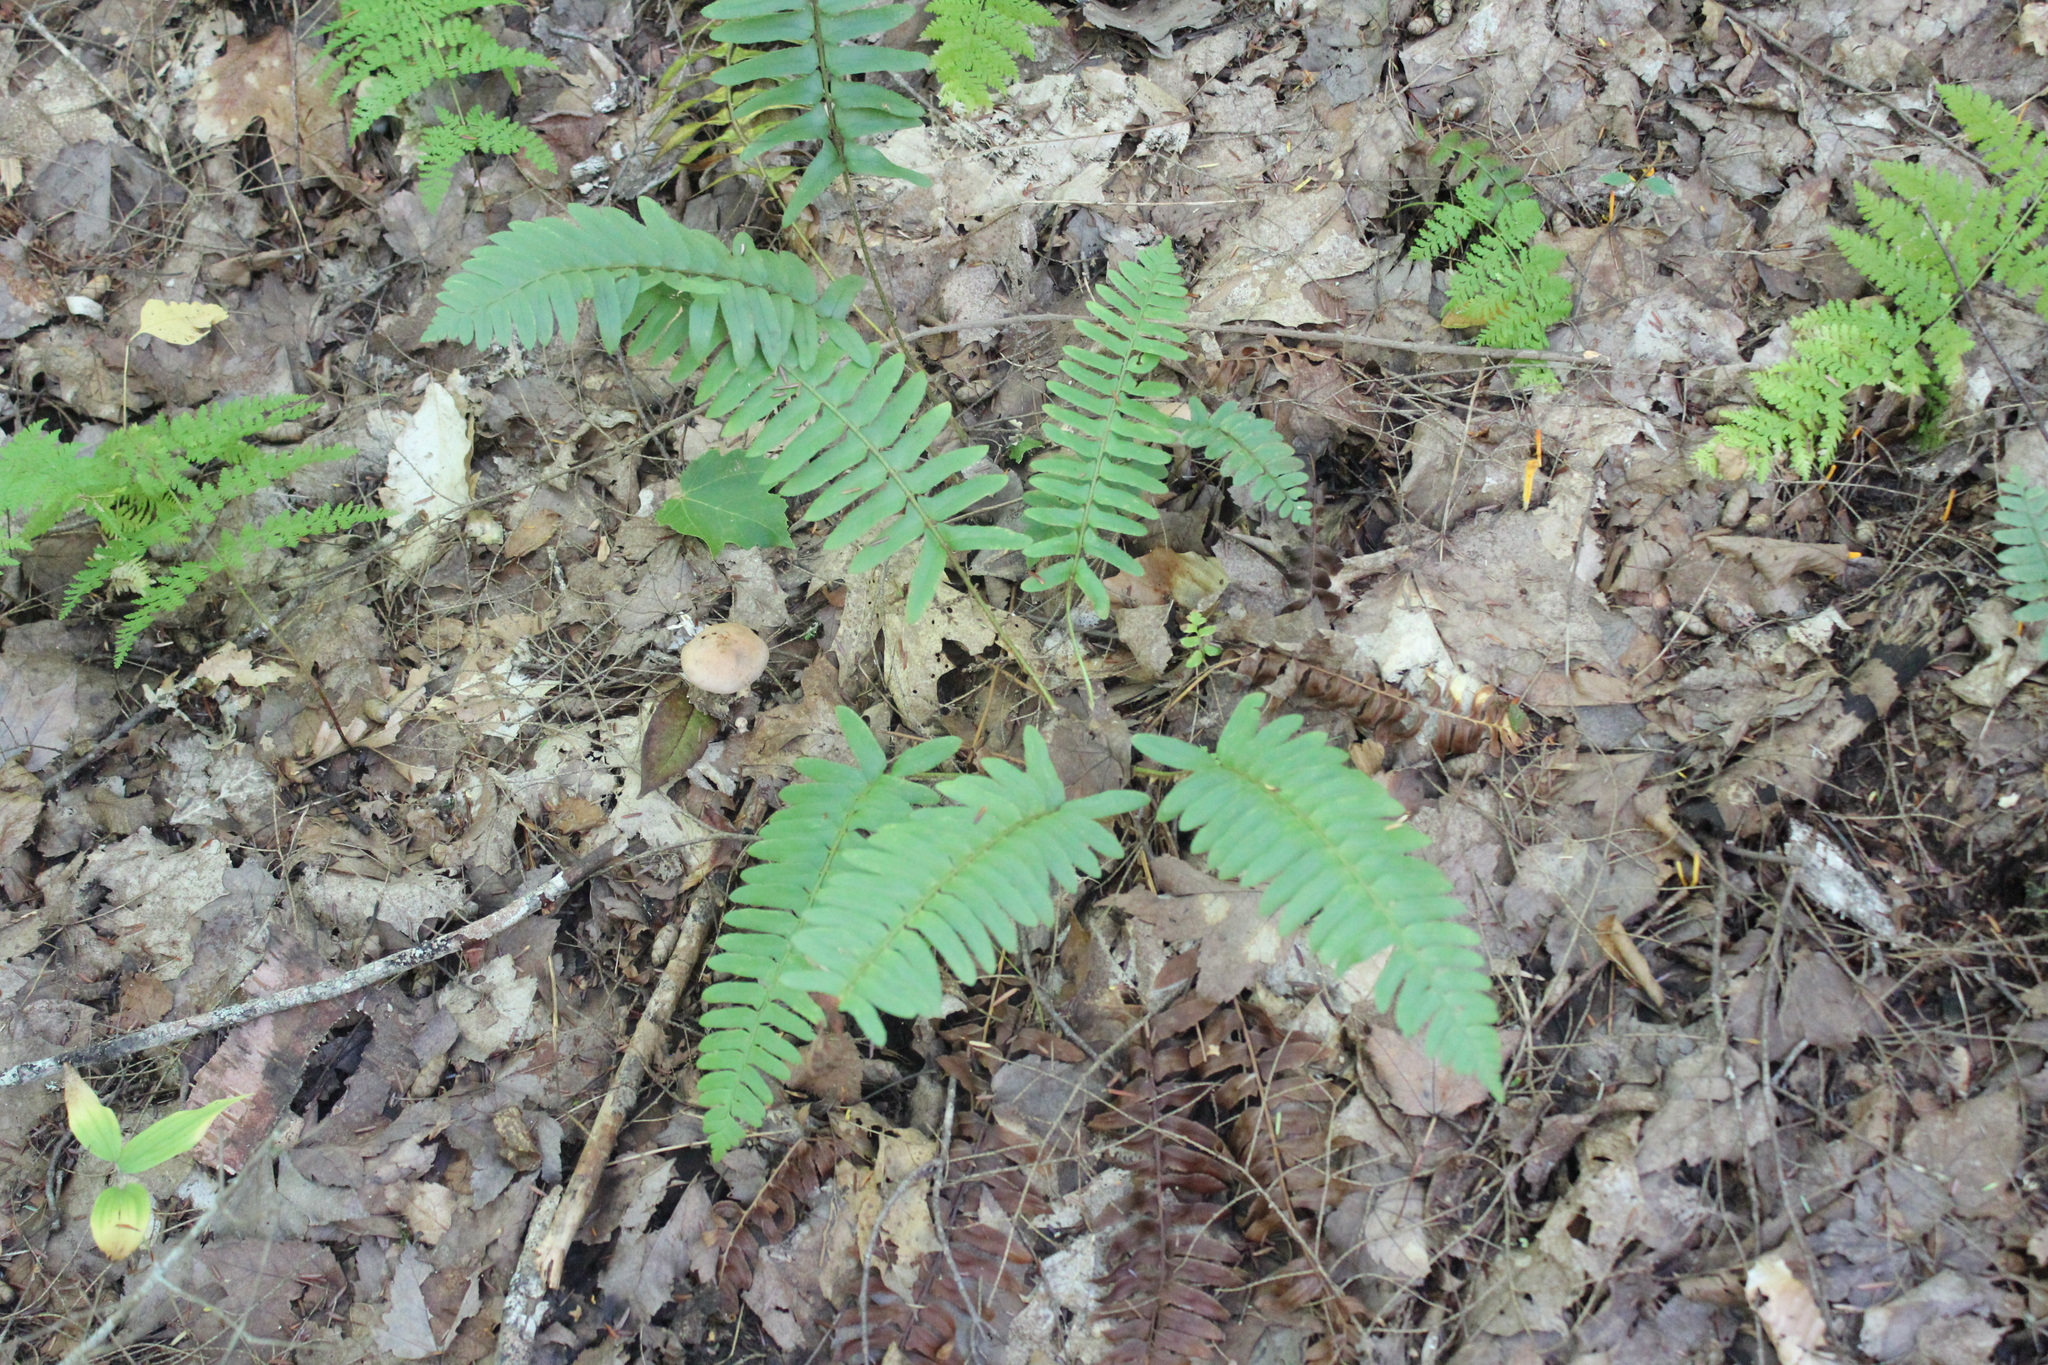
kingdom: Plantae
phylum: Tracheophyta
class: Polypodiopsida
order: Polypodiales
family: Dryopteridaceae
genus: Polystichum
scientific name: Polystichum acrostichoides
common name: Christmas fern
